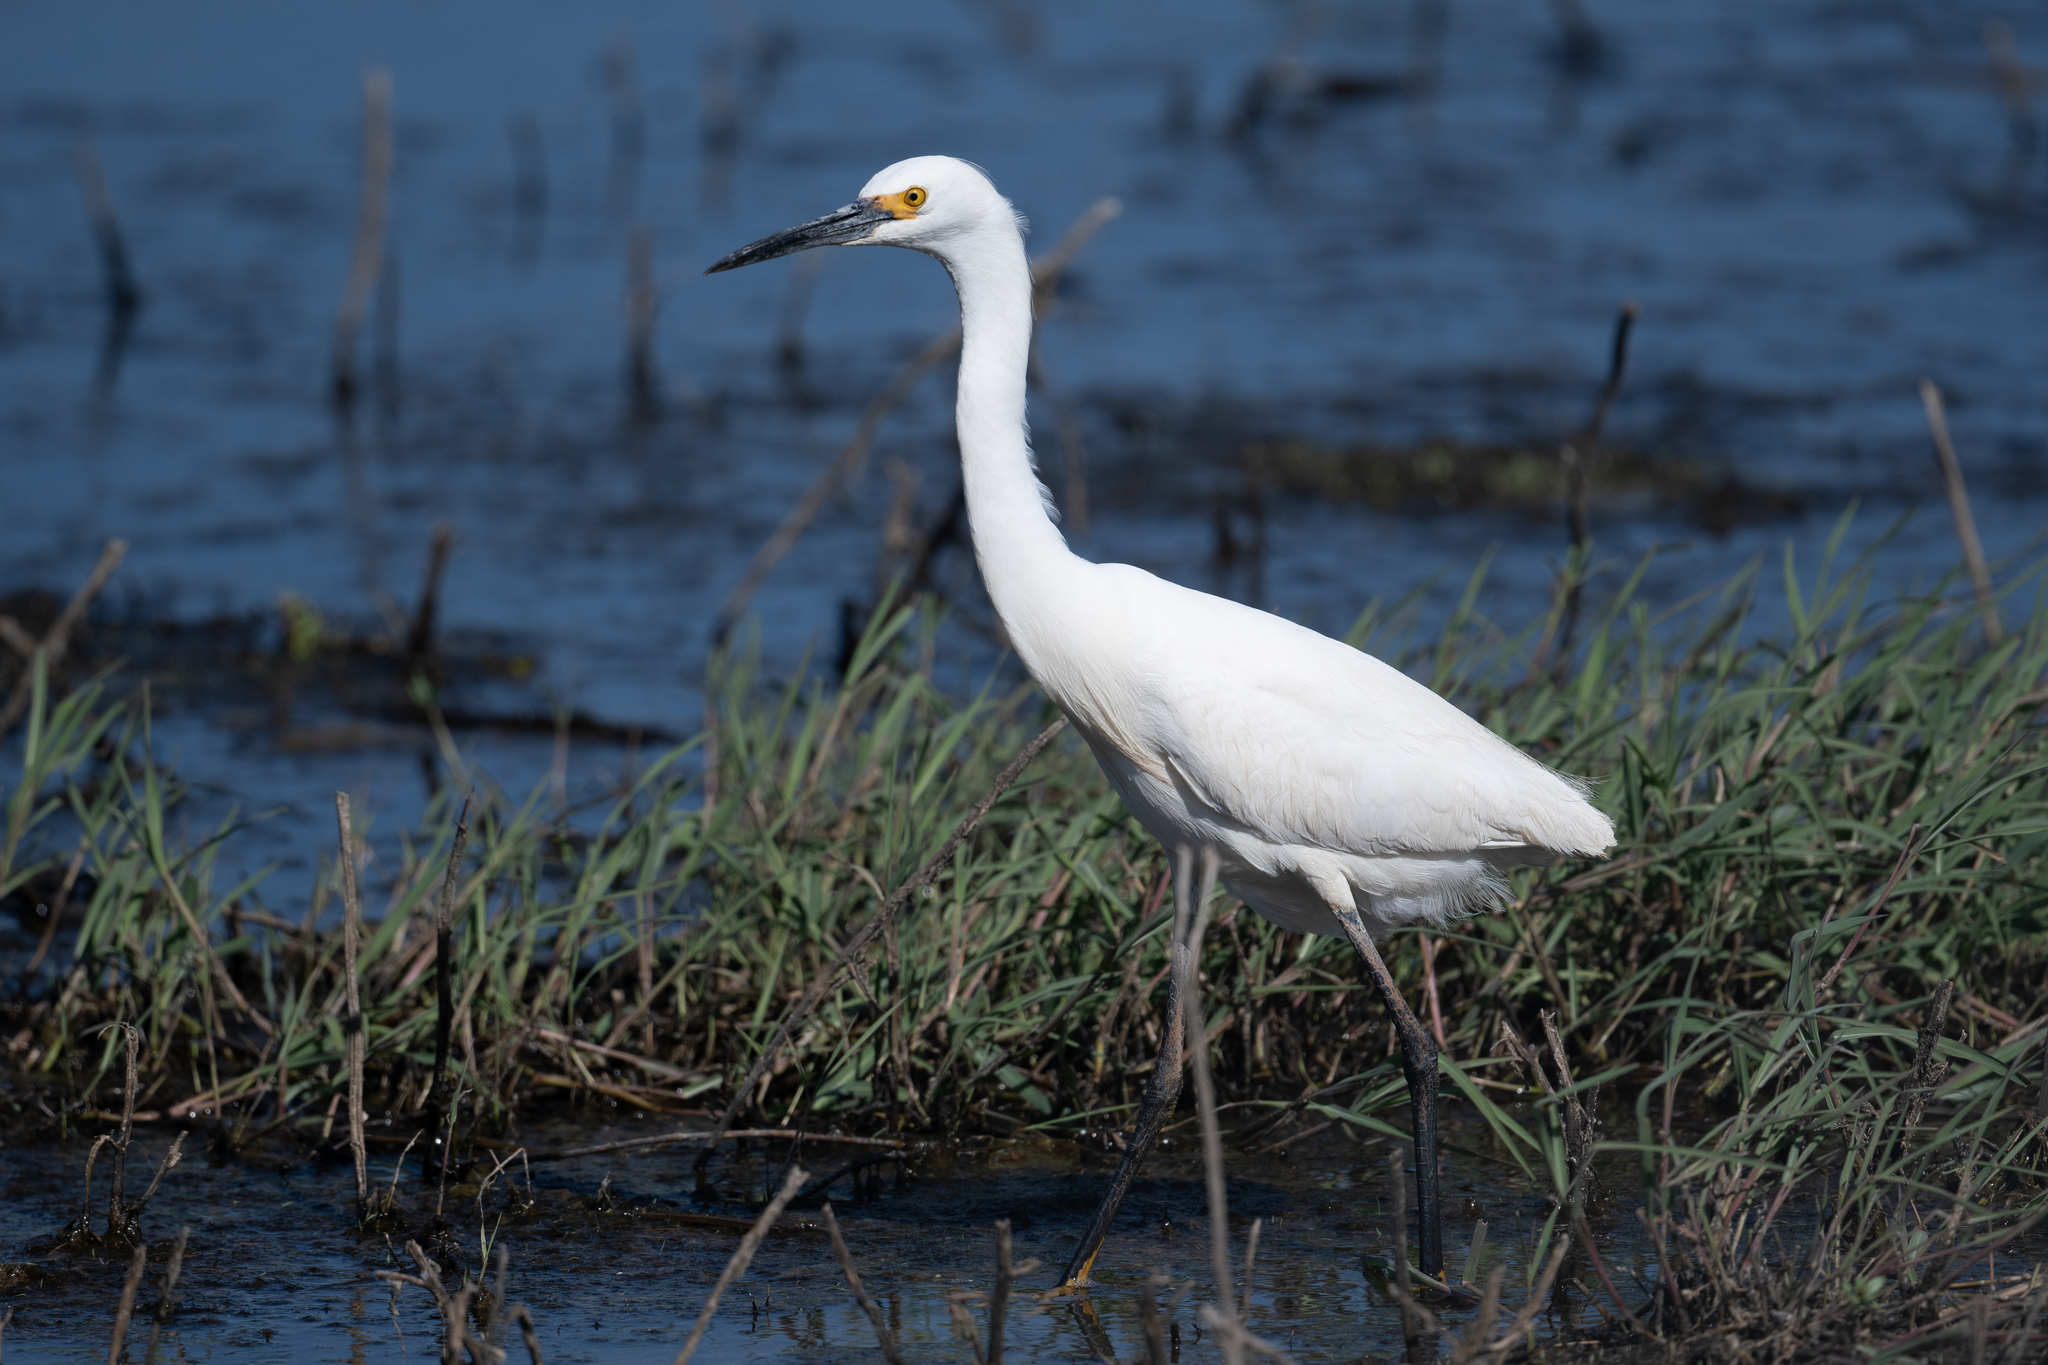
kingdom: Animalia
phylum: Chordata
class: Aves
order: Pelecaniformes
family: Ardeidae
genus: Egretta
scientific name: Egretta thula
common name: Snowy egret
